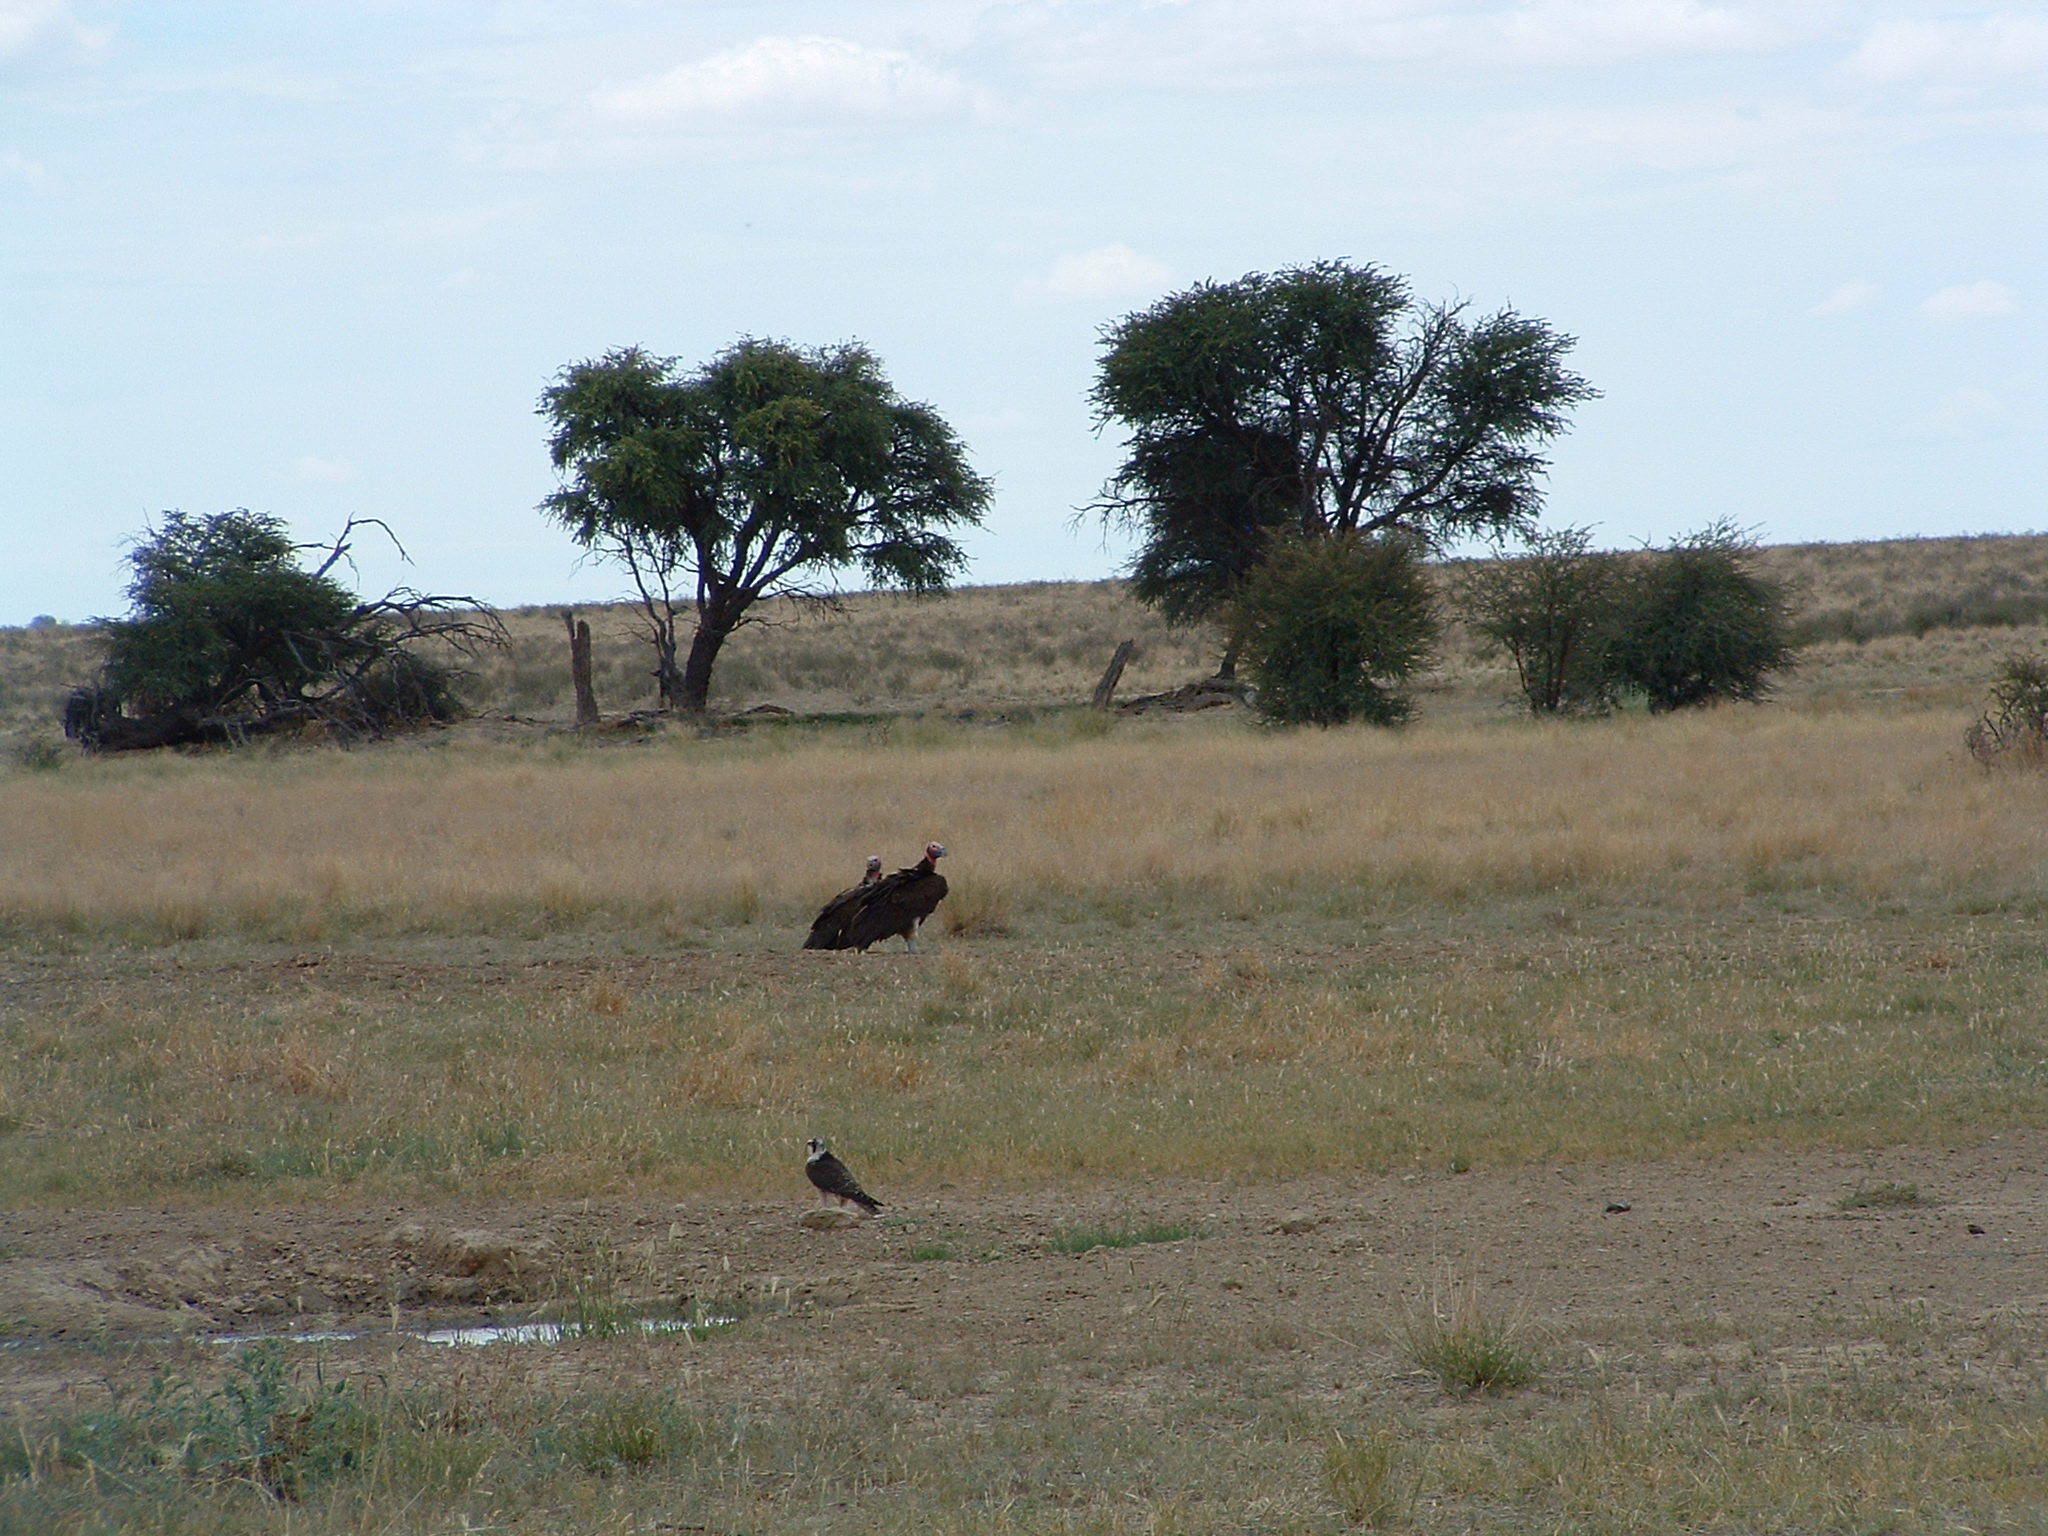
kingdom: Animalia
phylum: Chordata
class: Aves
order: Accipitriformes
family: Accipitridae
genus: Torgos
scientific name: Torgos tracheliotos
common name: Lappet-faced vulture
